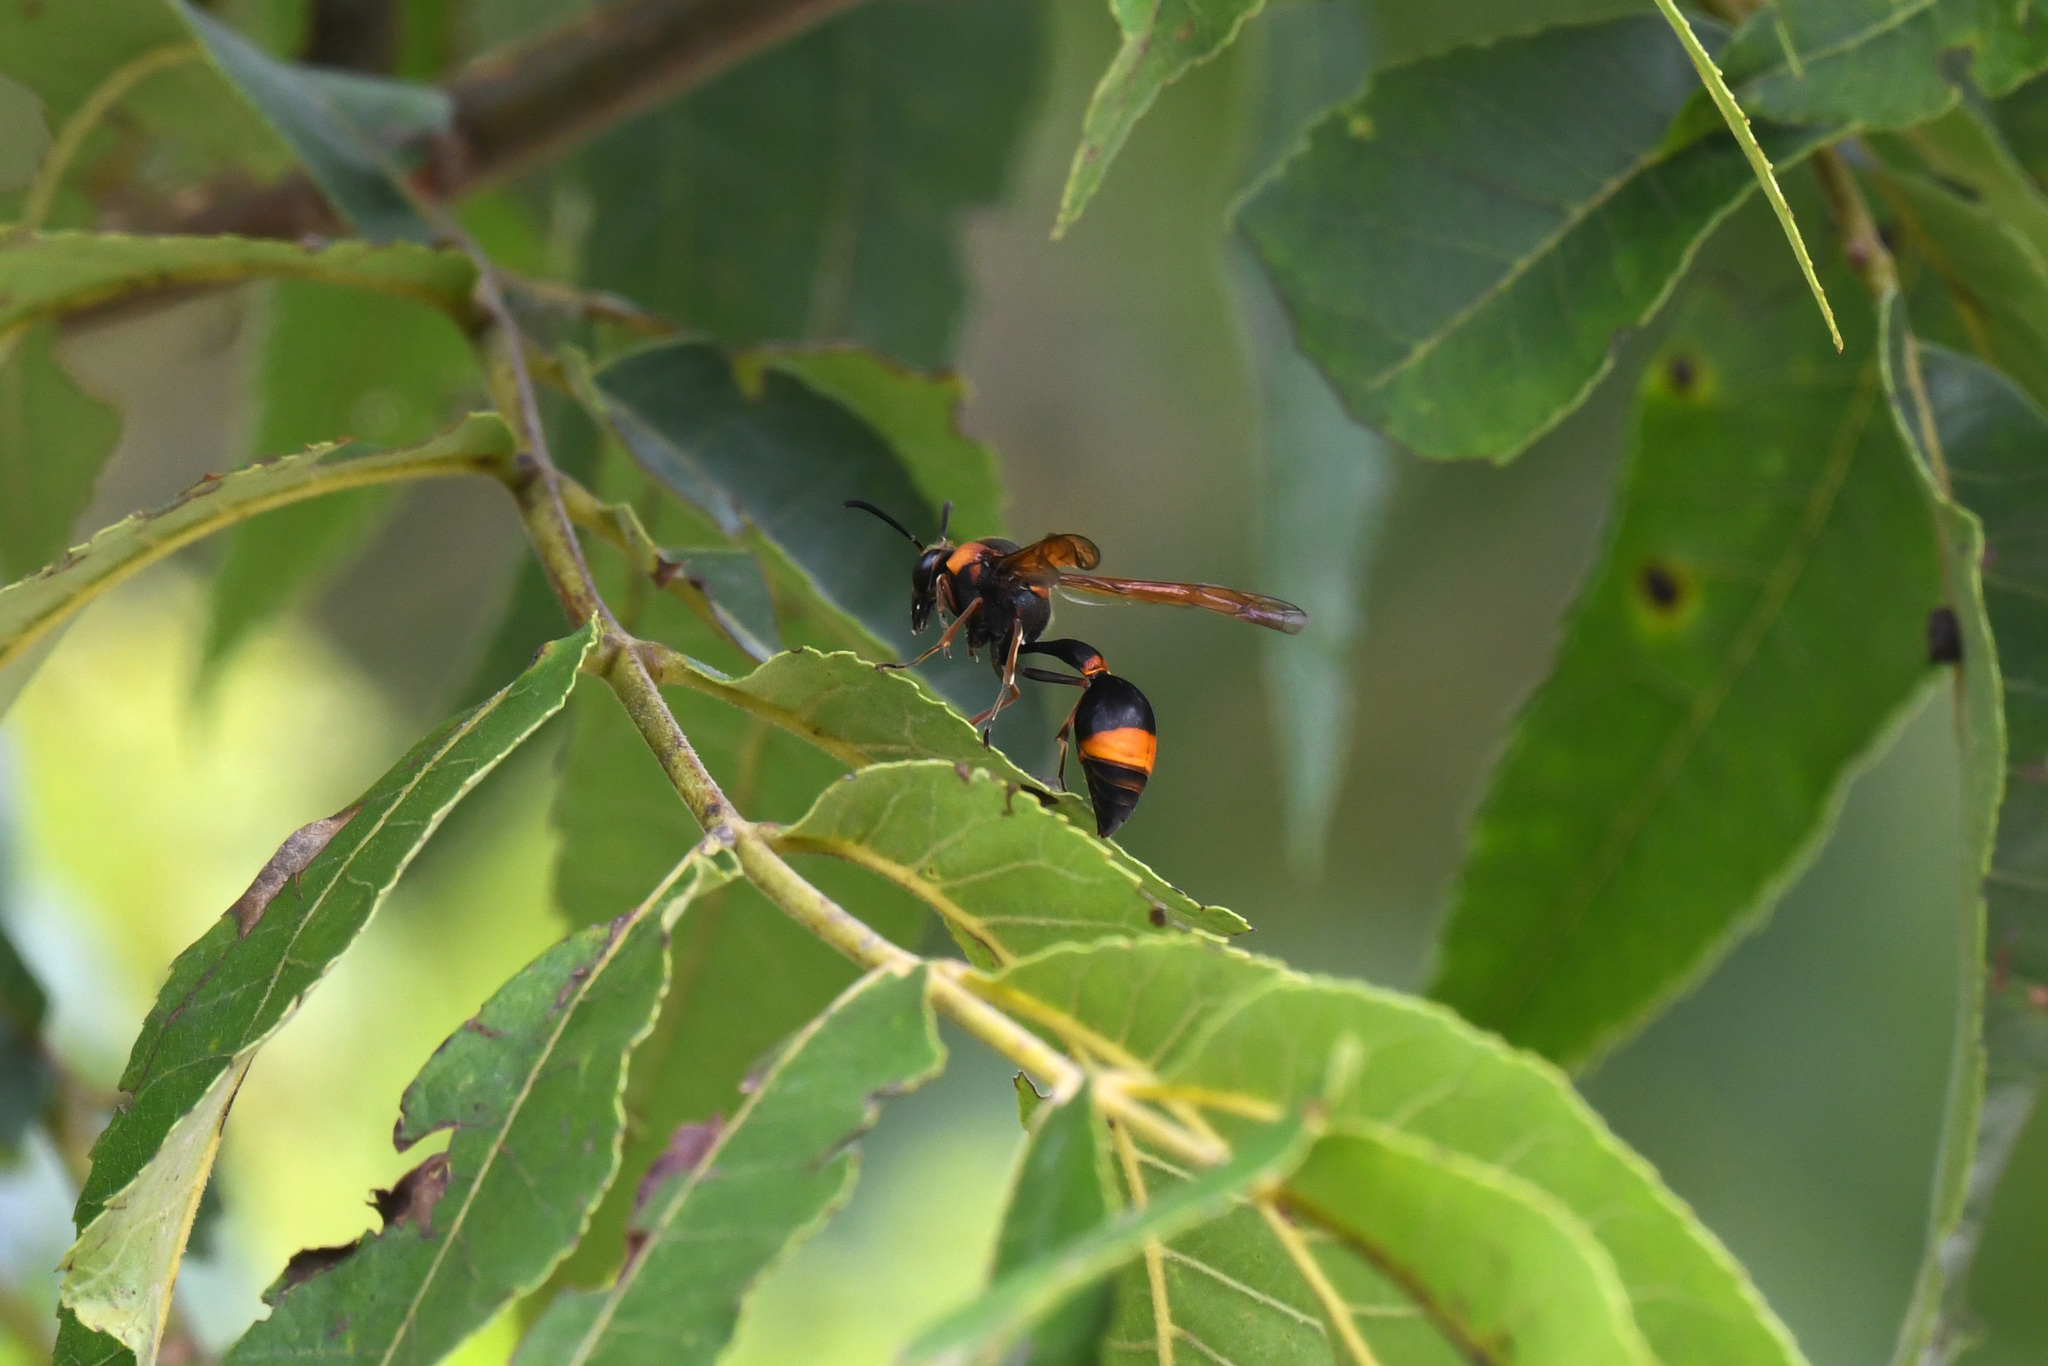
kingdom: Animalia
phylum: Arthropoda
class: Insecta
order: Hymenoptera
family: Eumenidae
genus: Oreumenes
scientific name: Oreumenes decoratus
